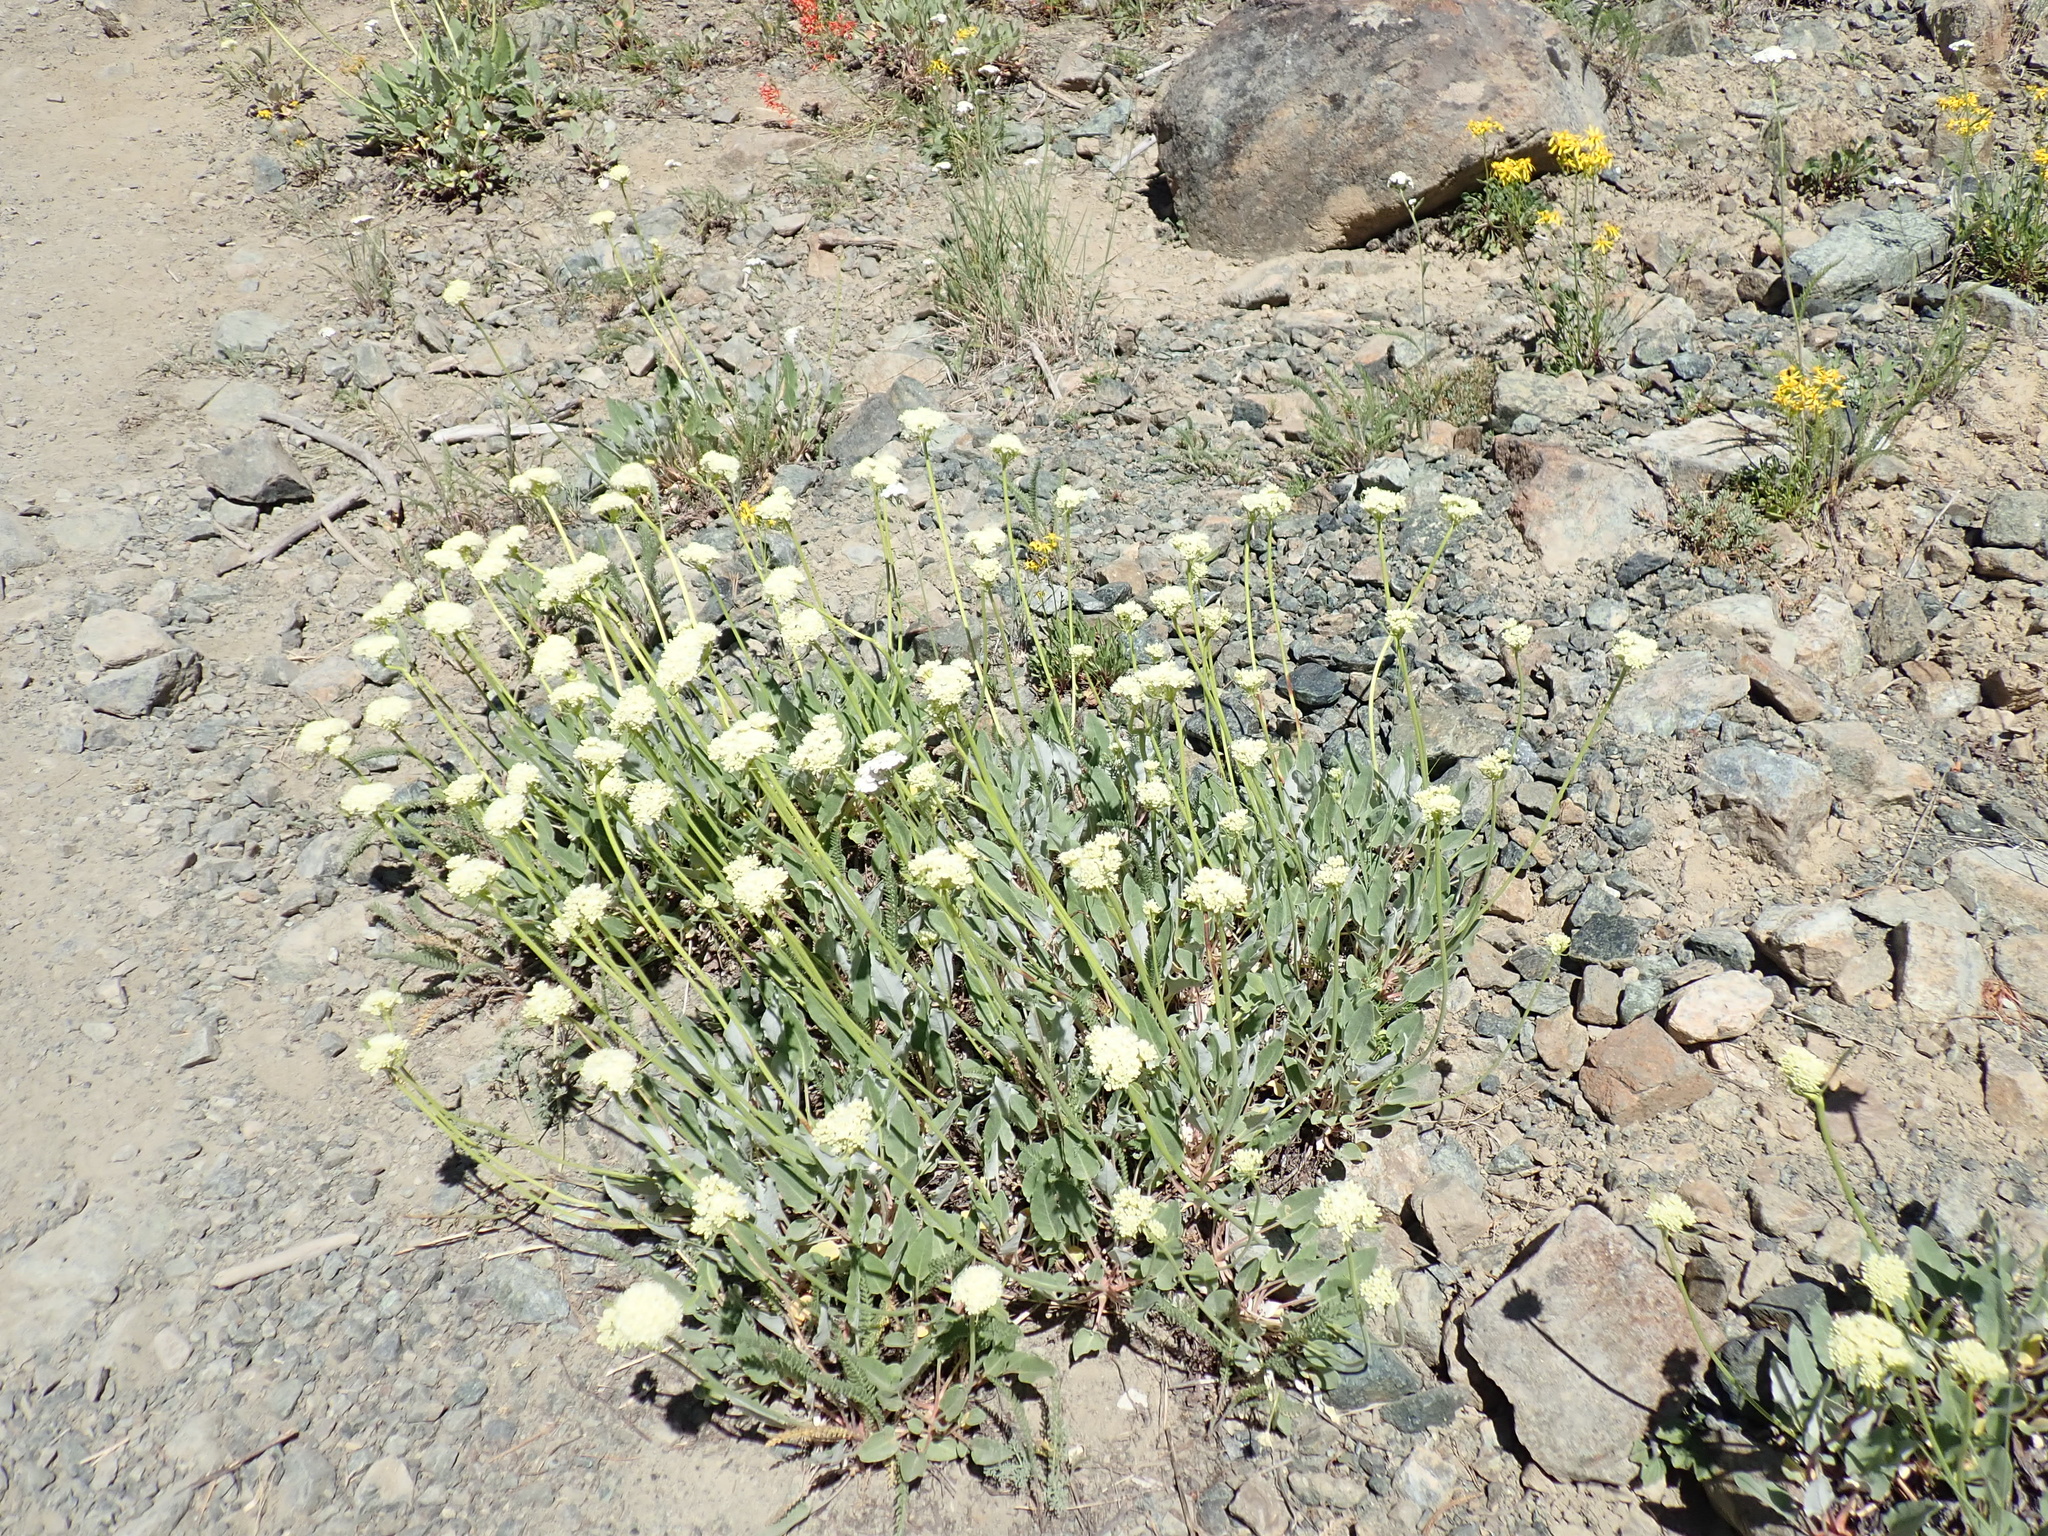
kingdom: Plantae
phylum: Tracheophyta
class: Magnoliopsida
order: Caryophyllales
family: Polygonaceae
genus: Eriogonum
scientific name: Eriogonum compositum
